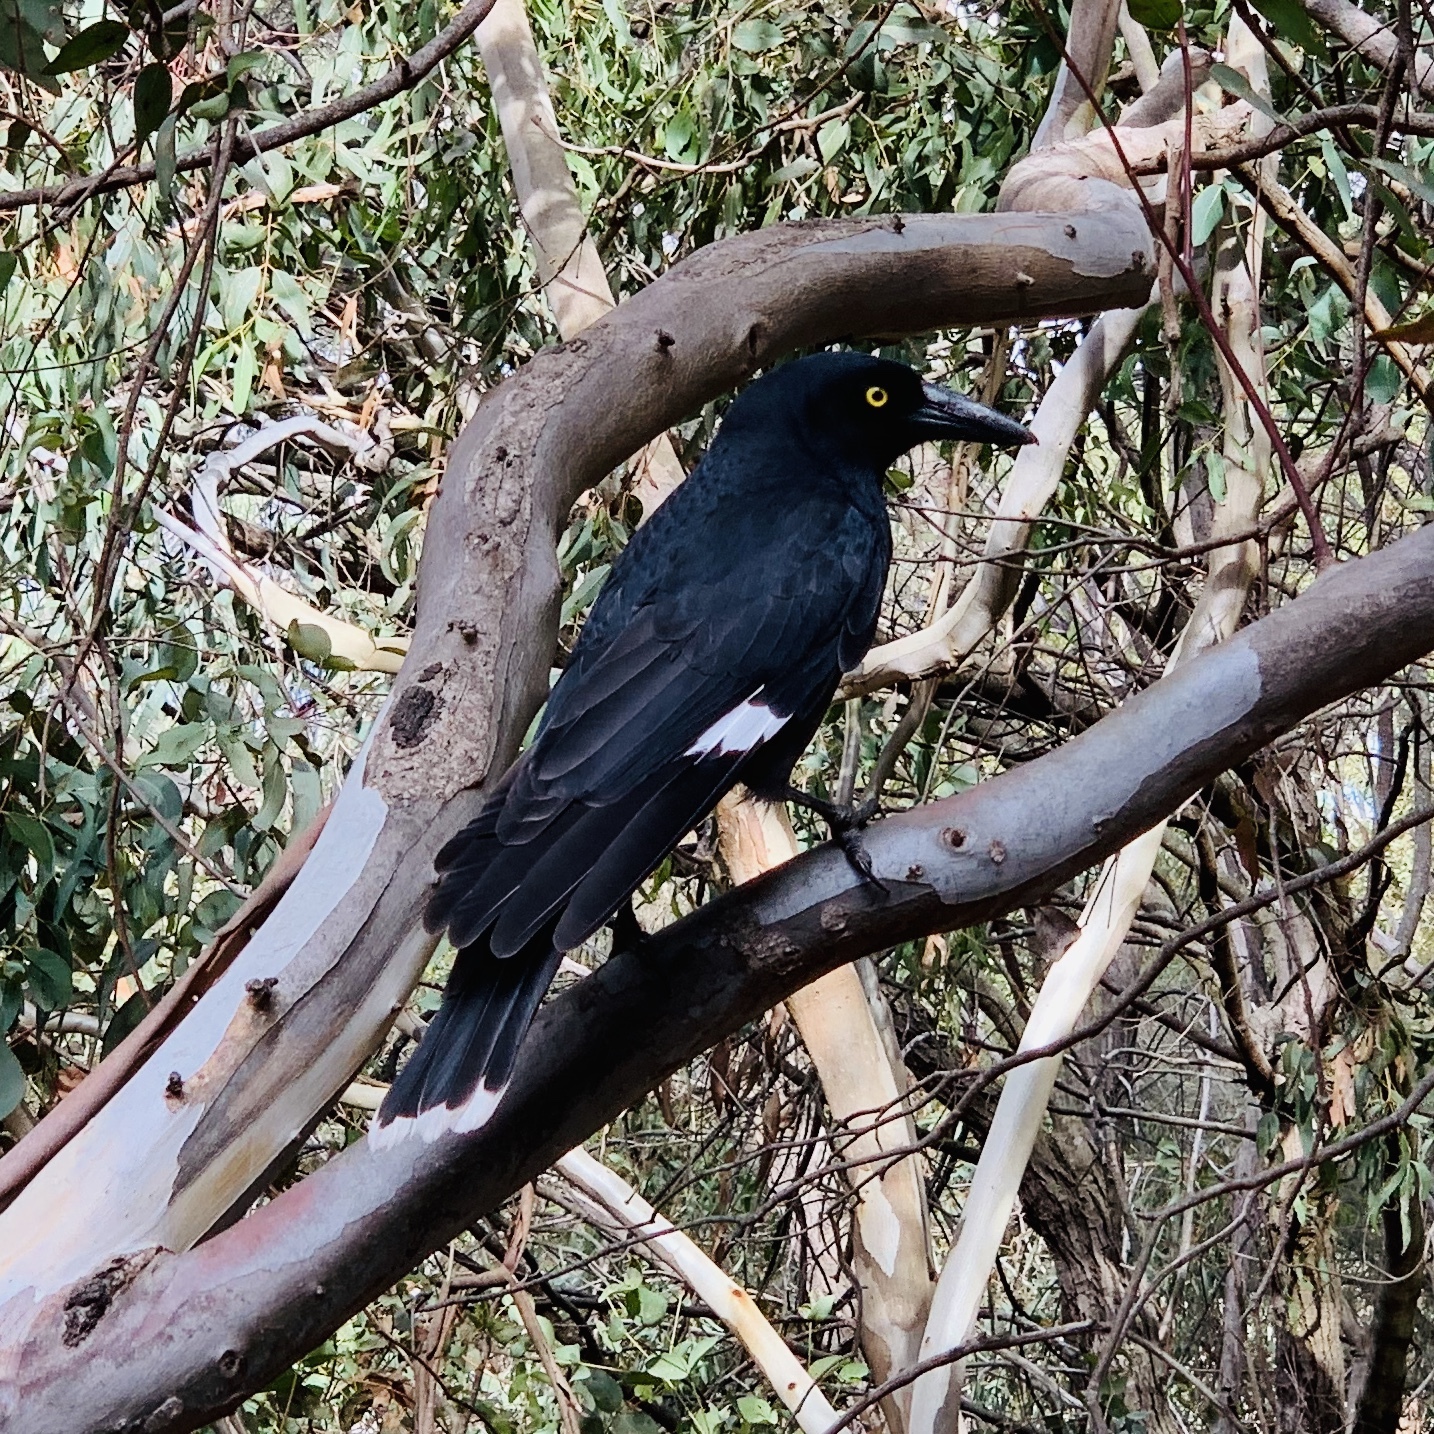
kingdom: Animalia
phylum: Chordata
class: Aves
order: Passeriformes
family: Cracticidae
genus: Strepera
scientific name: Strepera graculina
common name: Pied currawong
